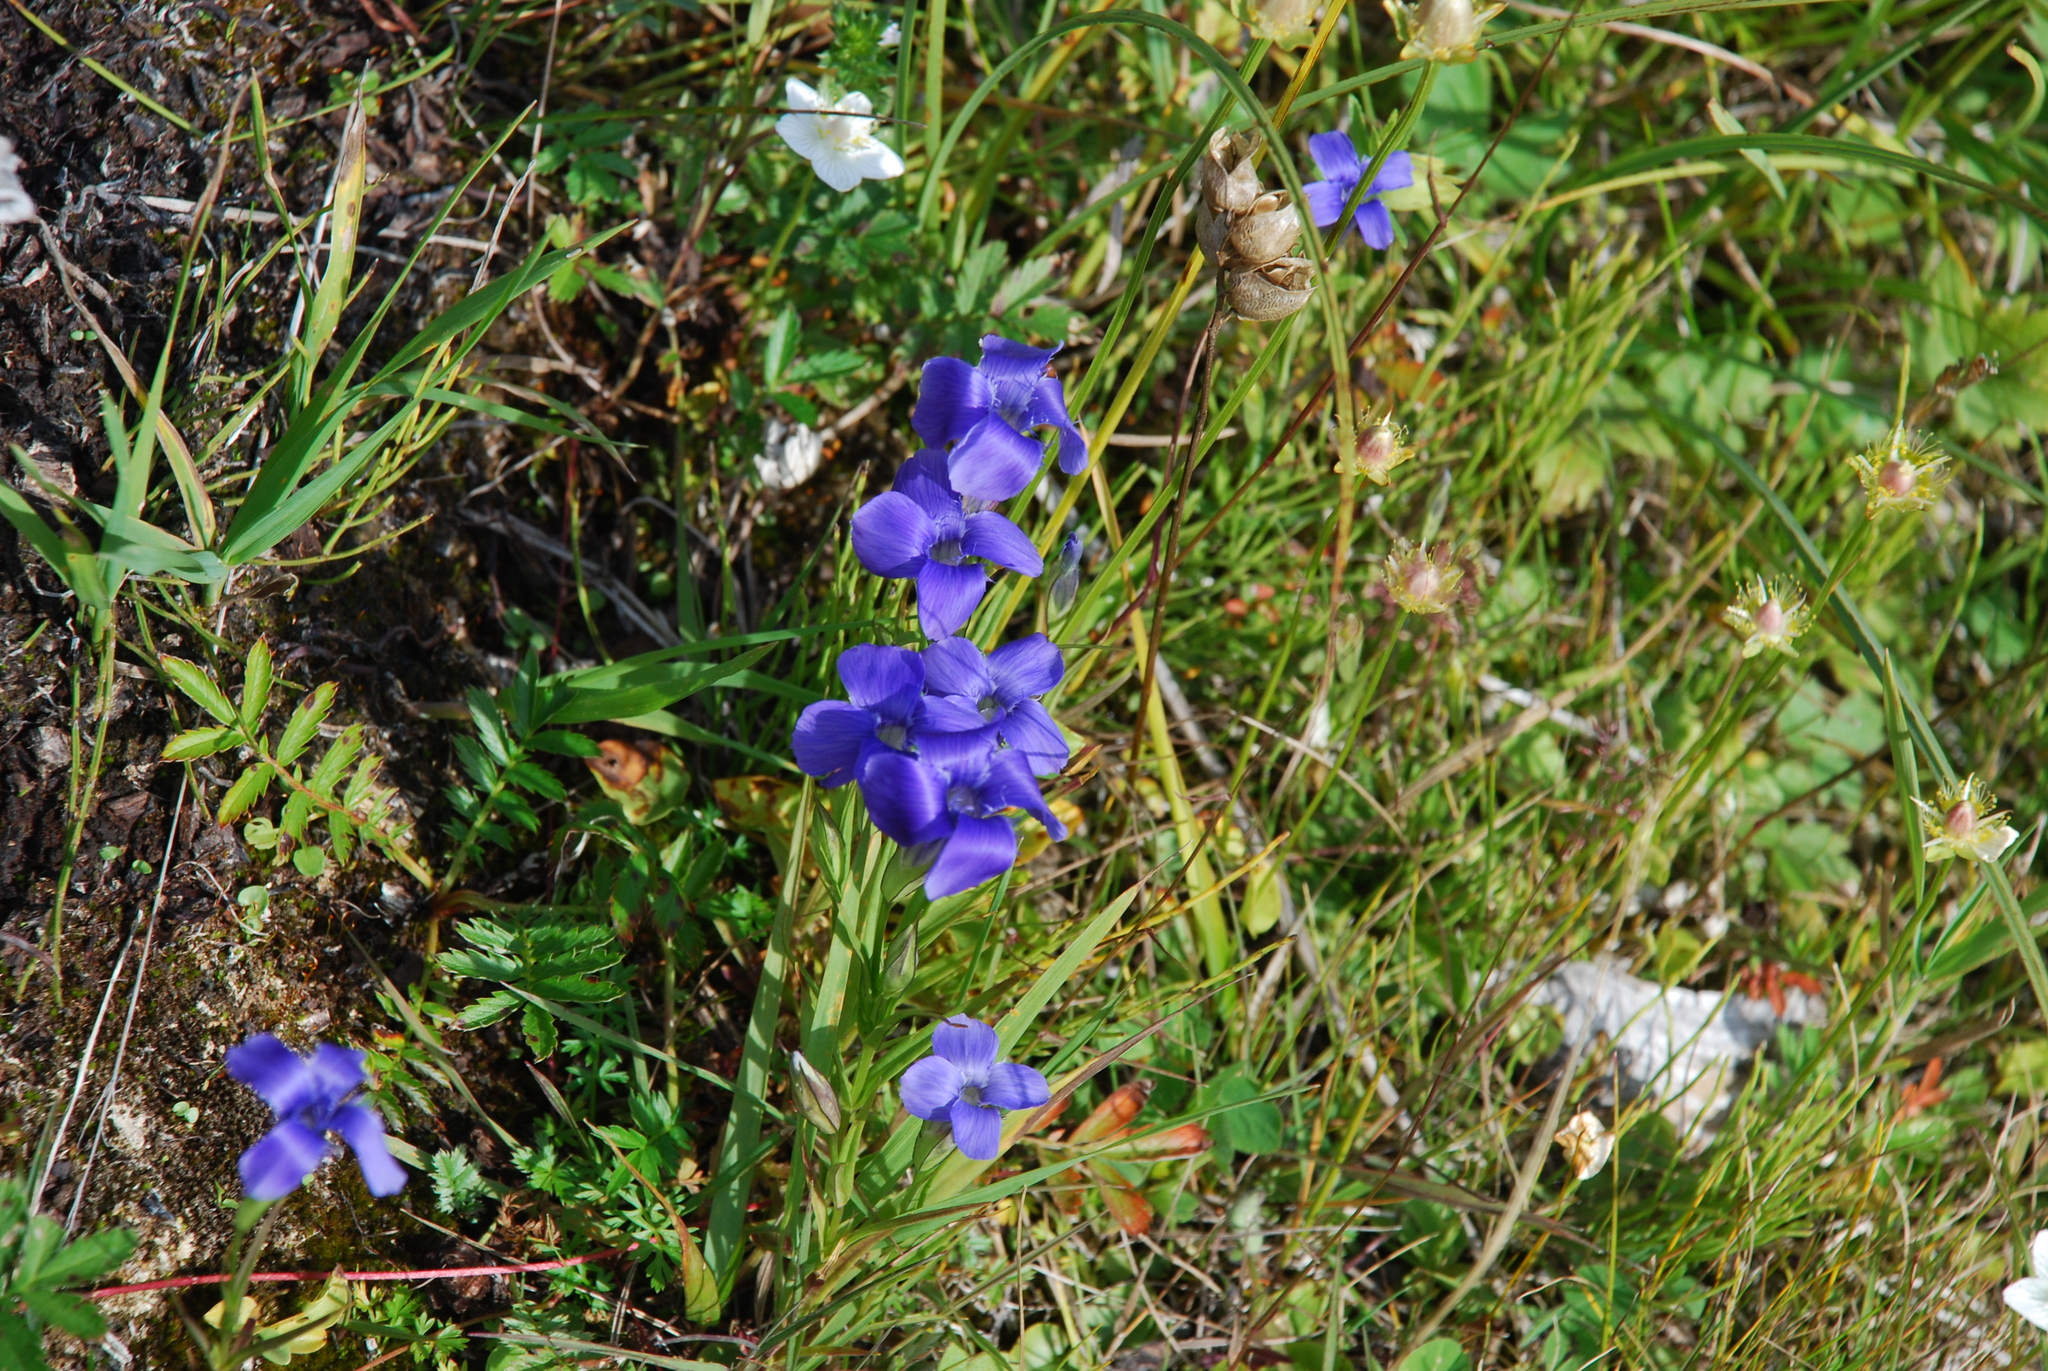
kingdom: Plantae
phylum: Tracheophyta
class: Magnoliopsida
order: Gentianales
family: Gentianaceae
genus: Gentianopsis
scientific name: Gentianopsis barbata
